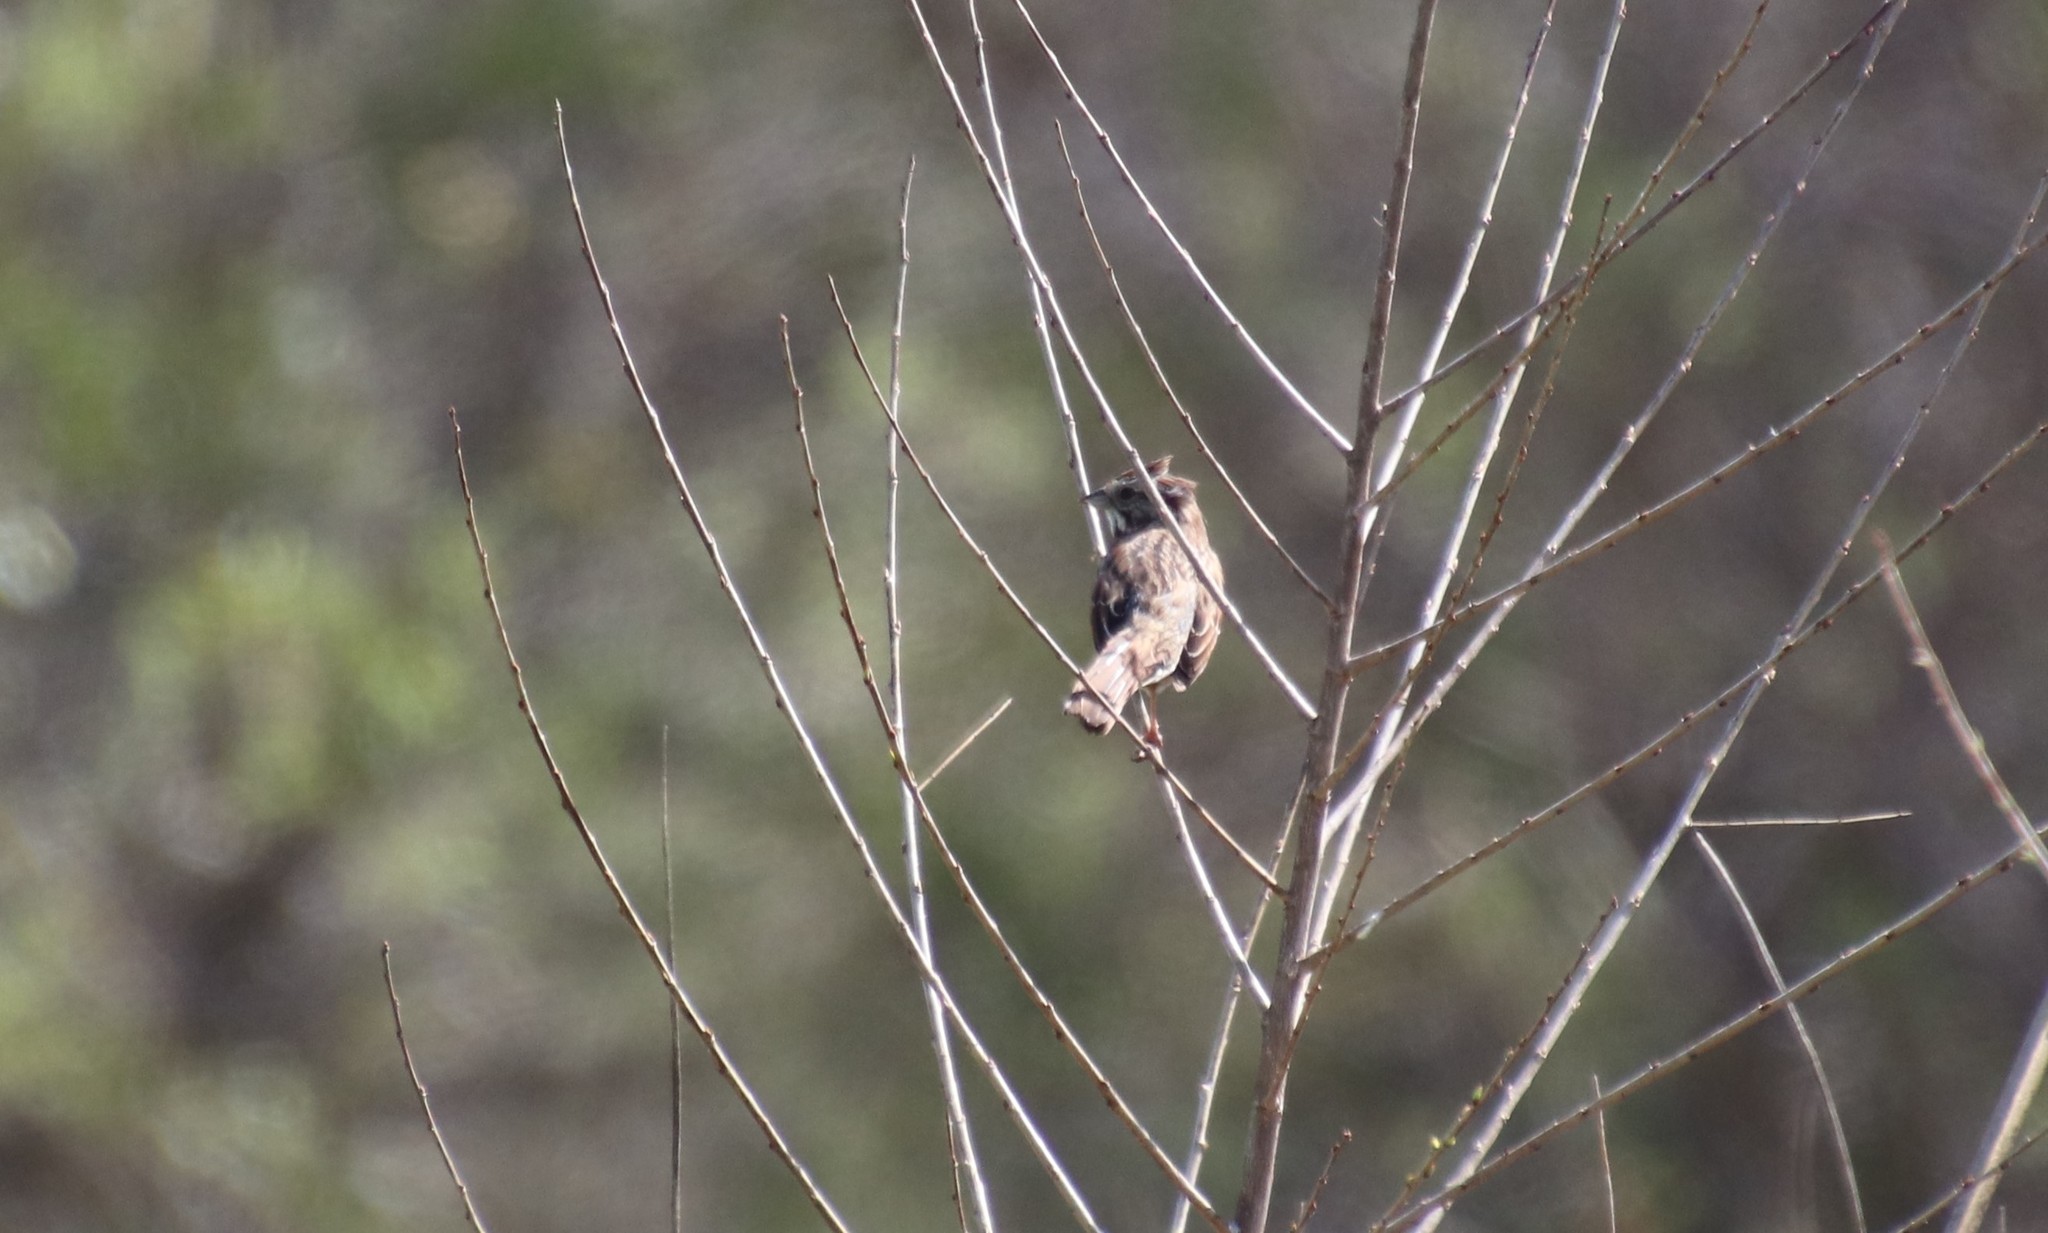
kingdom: Animalia
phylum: Chordata
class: Aves
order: Passeriformes
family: Passerellidae
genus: Melospiza
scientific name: Melospiza melodia
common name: Song sparrow
